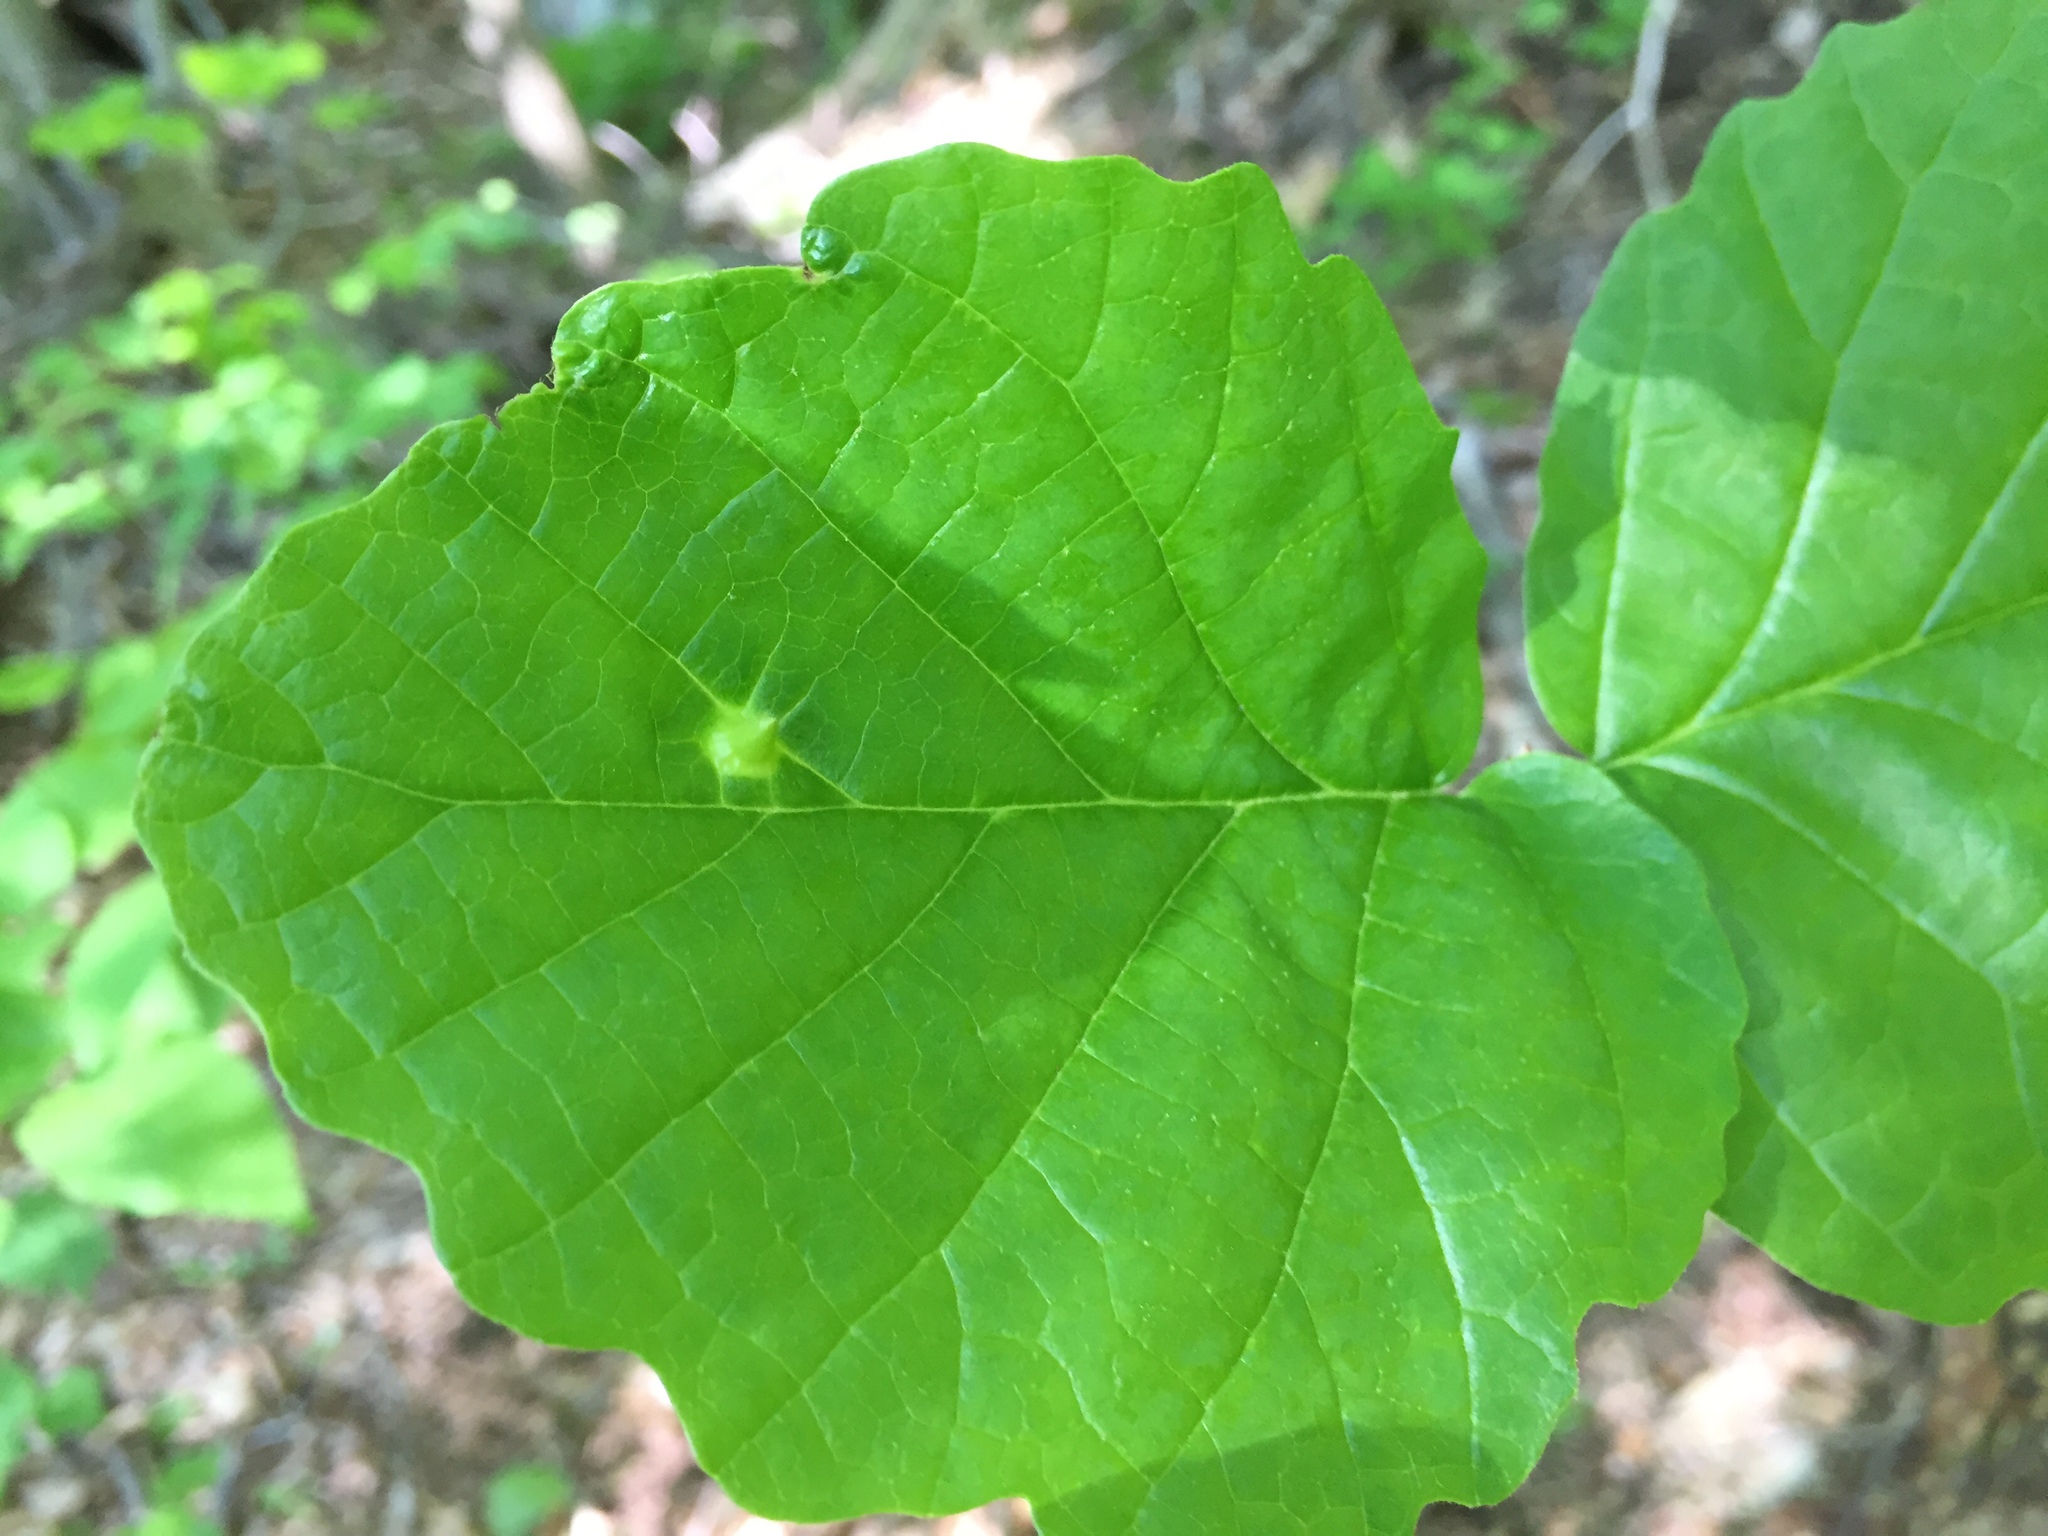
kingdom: Animalia
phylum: Arthropoda
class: Insecta
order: Hemiptera
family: Aphididae
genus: Hormaphis
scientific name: Hormaphis hamamelidis
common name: Witch-hazel cone gall aphid
